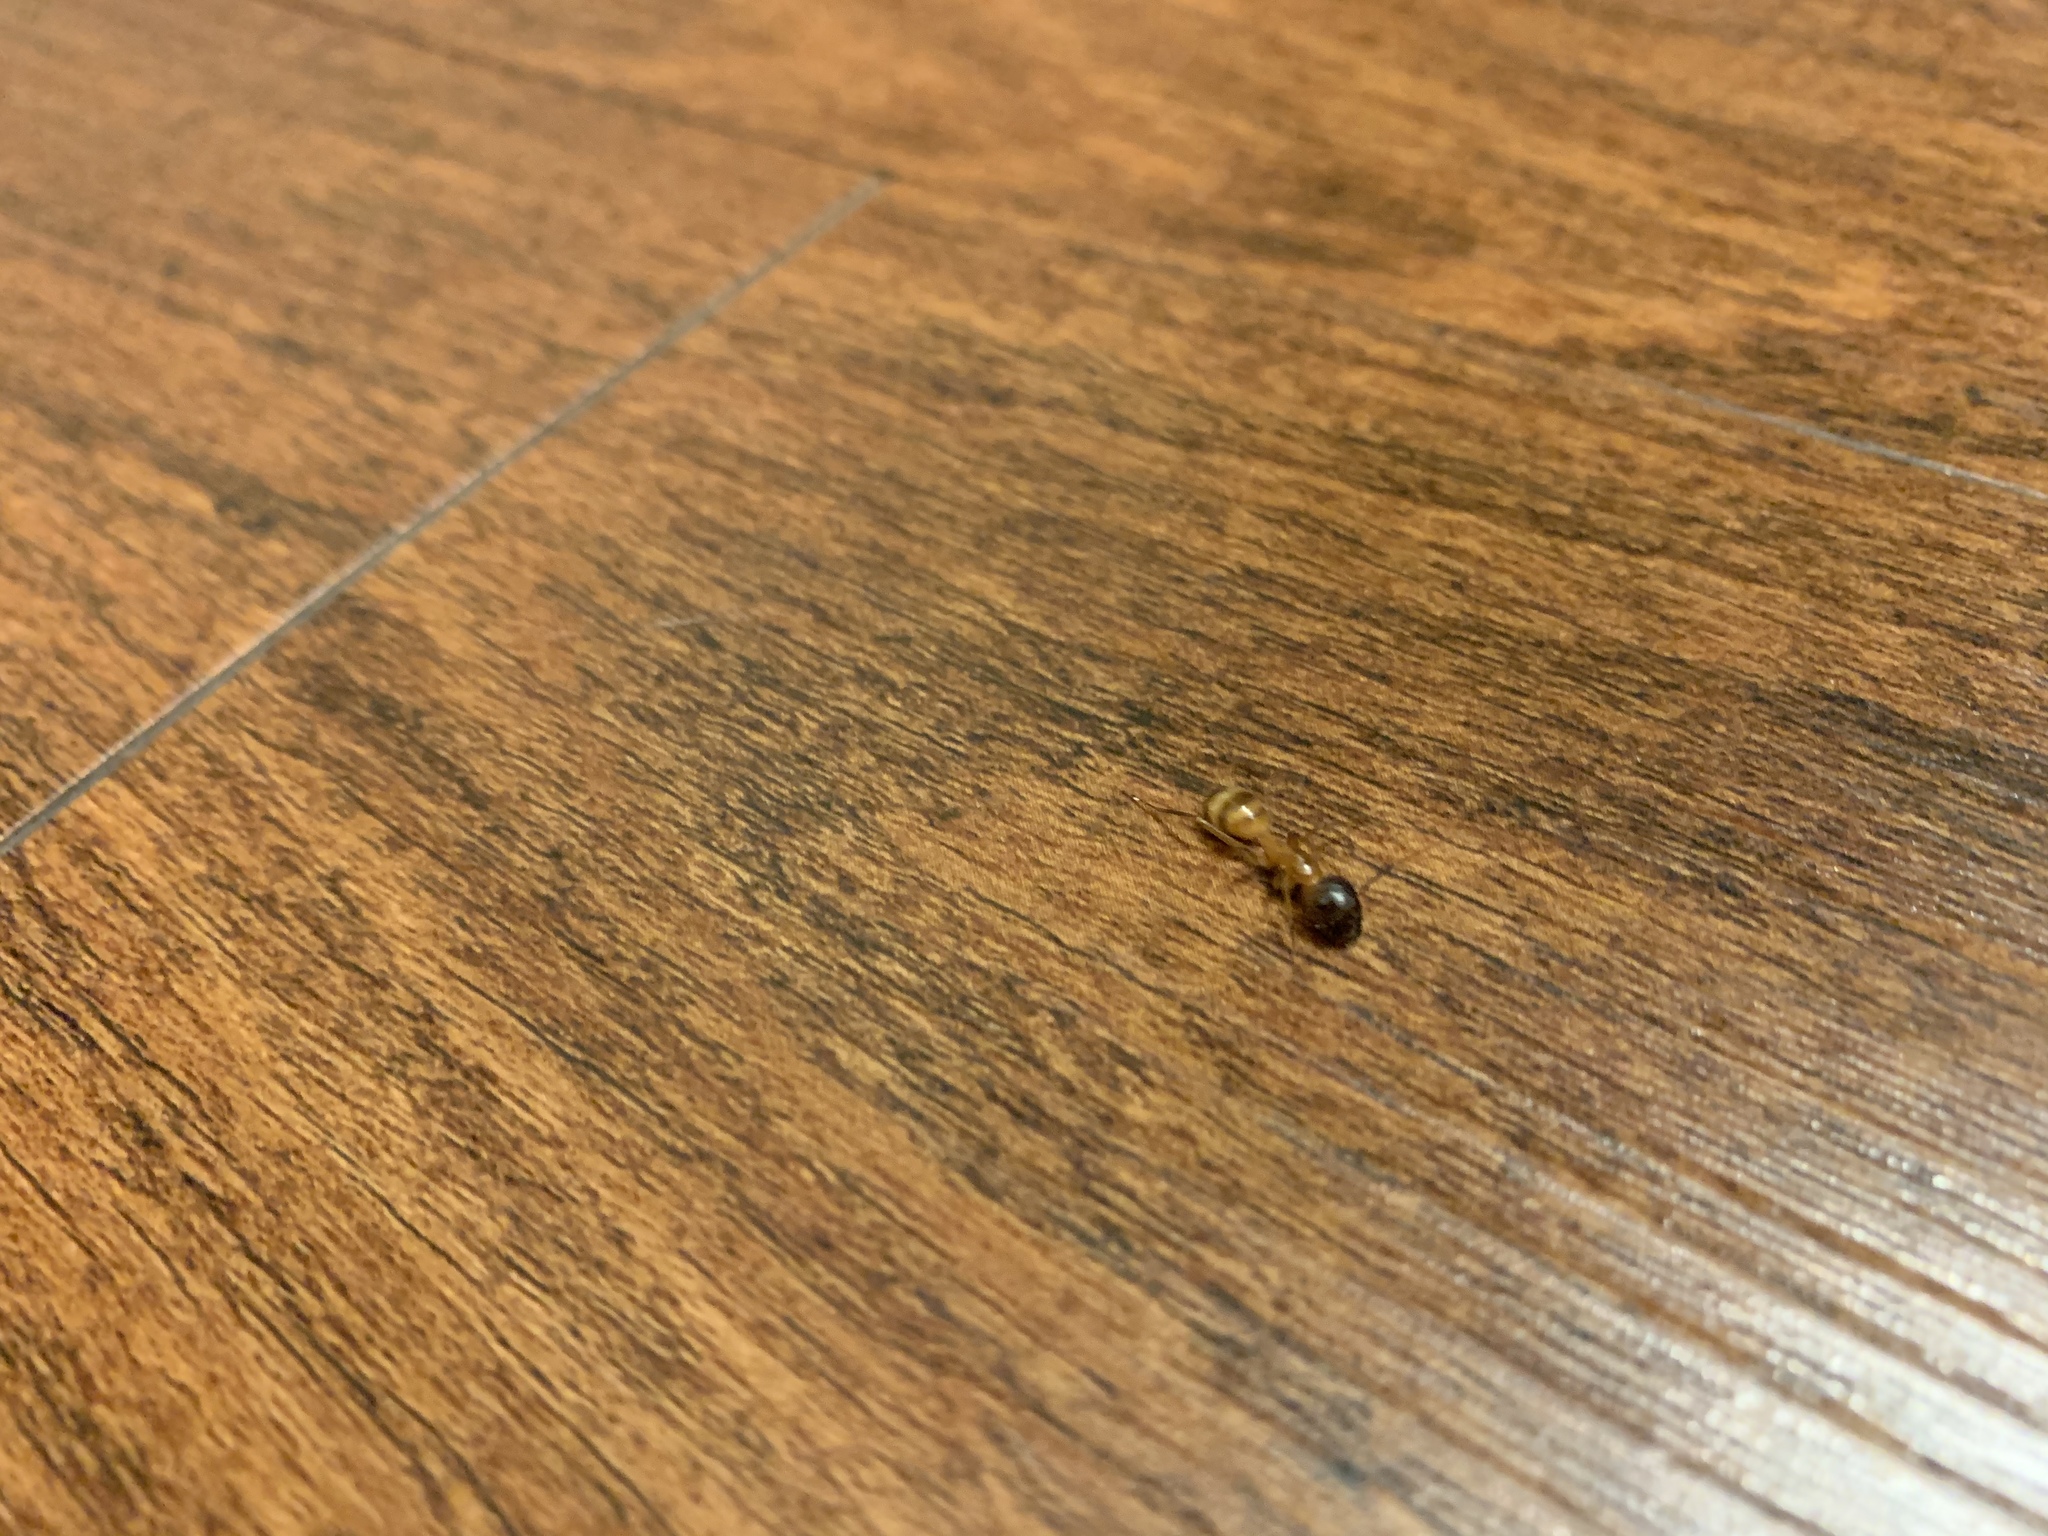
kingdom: Animalia
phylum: Arthropoda
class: Insecta
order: Hymenoptera
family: Formicidae
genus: Camponotus
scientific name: Camponotus festinatus
